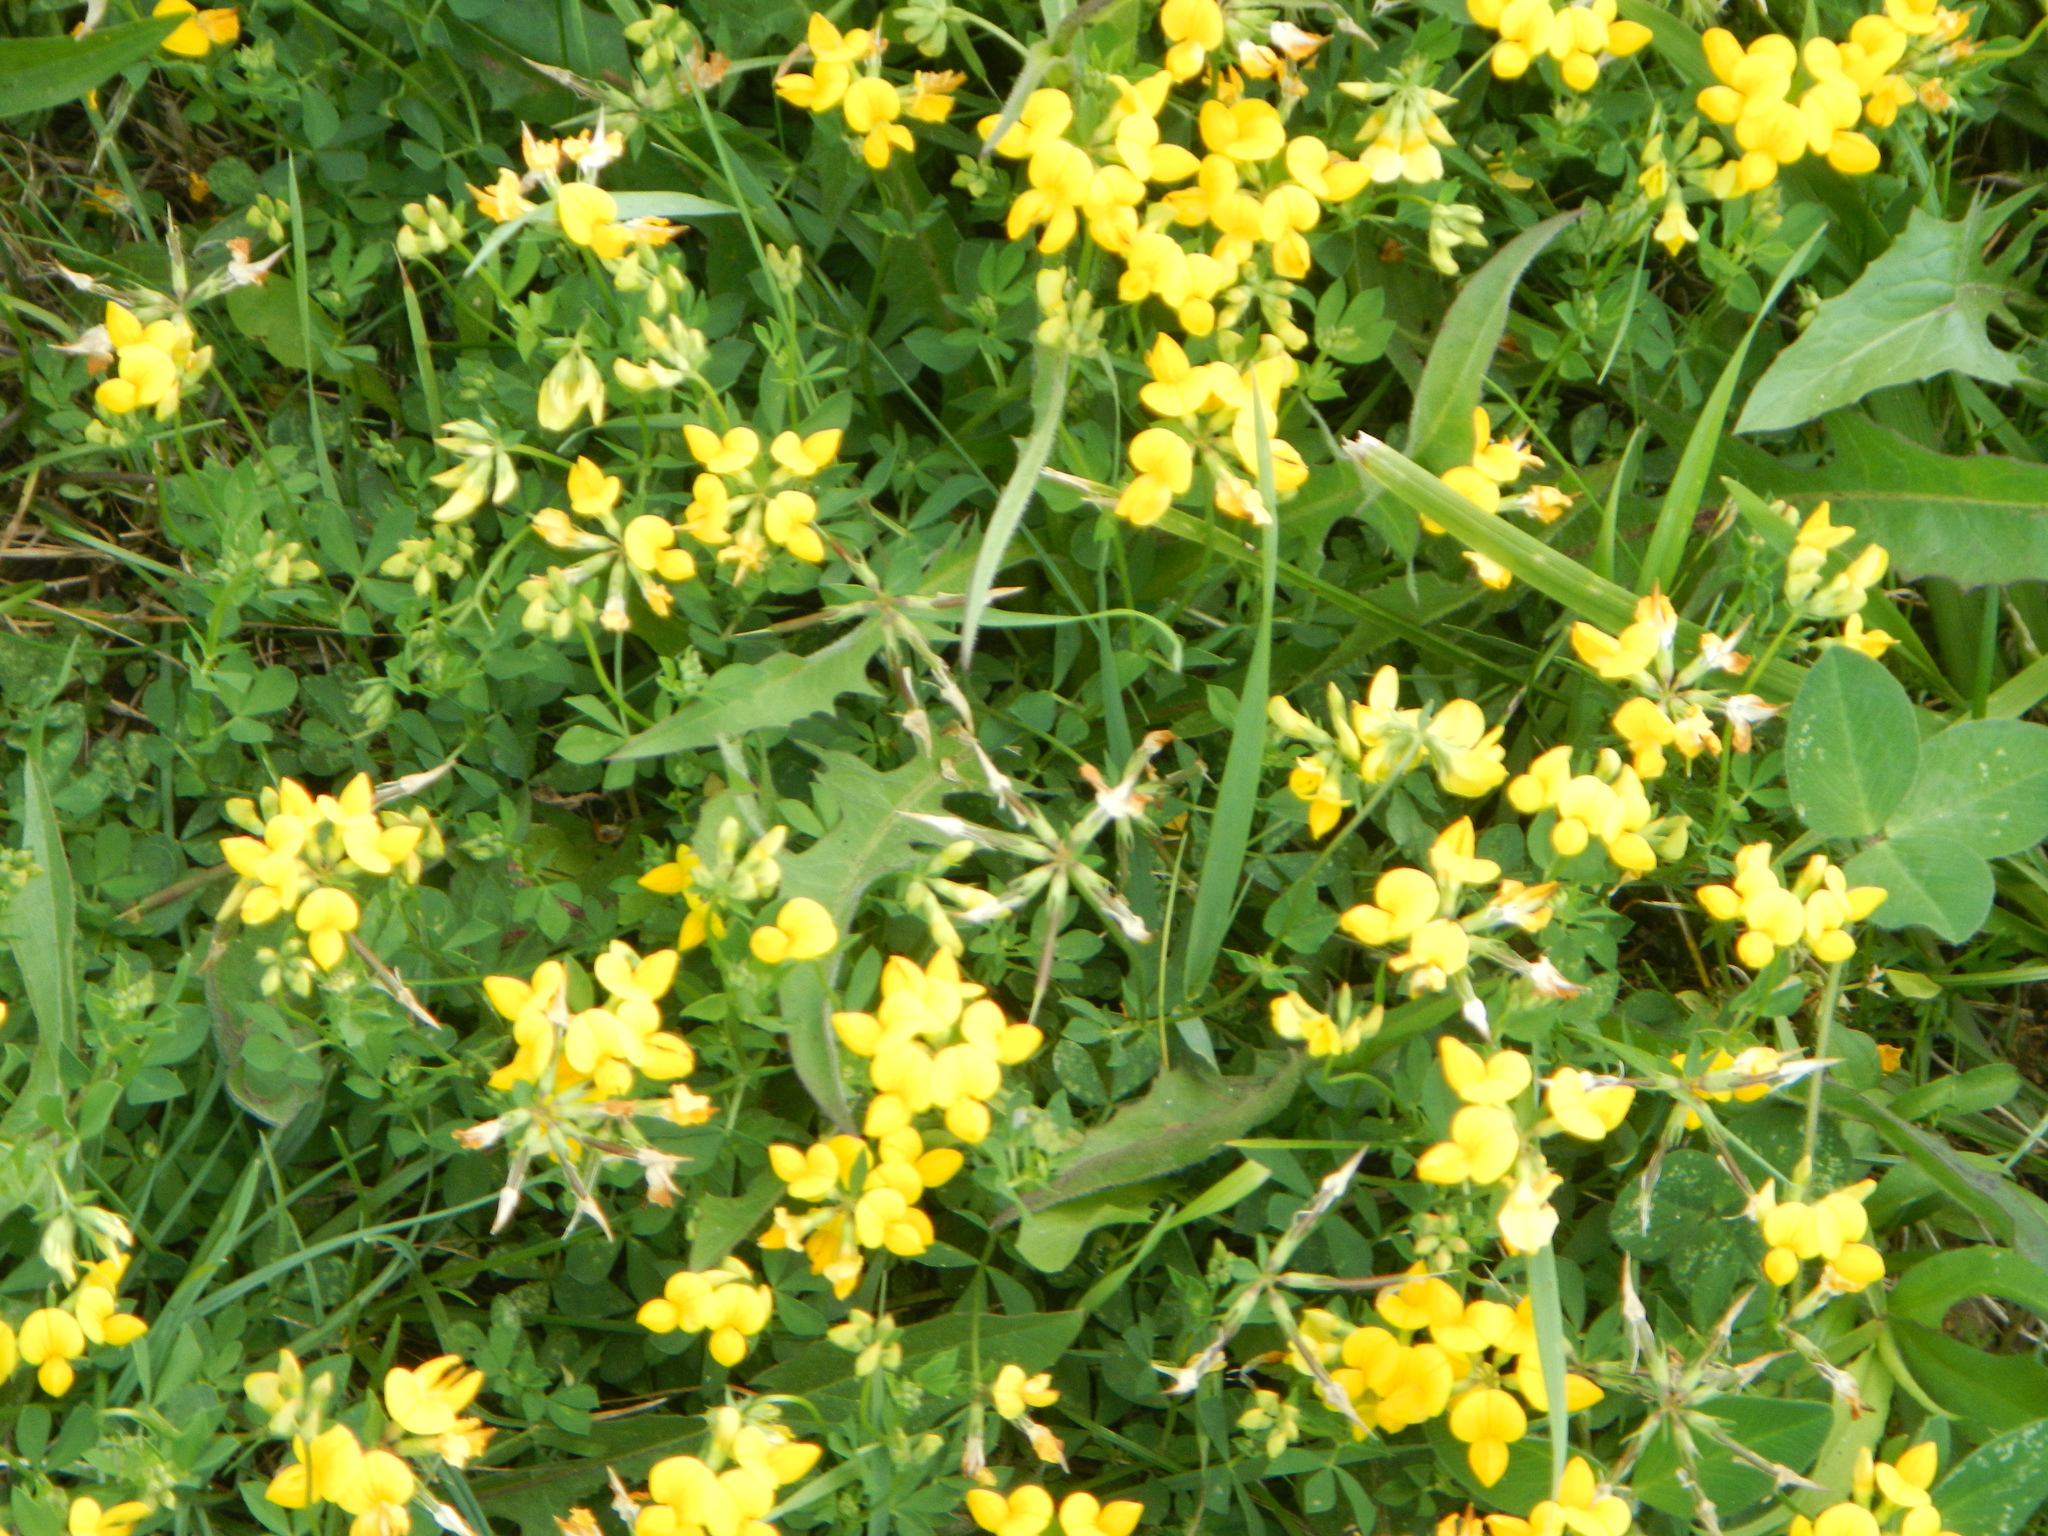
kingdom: Plantae
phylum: Tracheophyta
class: Magnoliopsida
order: Fabales
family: Fabaceae
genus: Lotus
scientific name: Lotus corniculatus
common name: Common bird's-foot-trefoil
